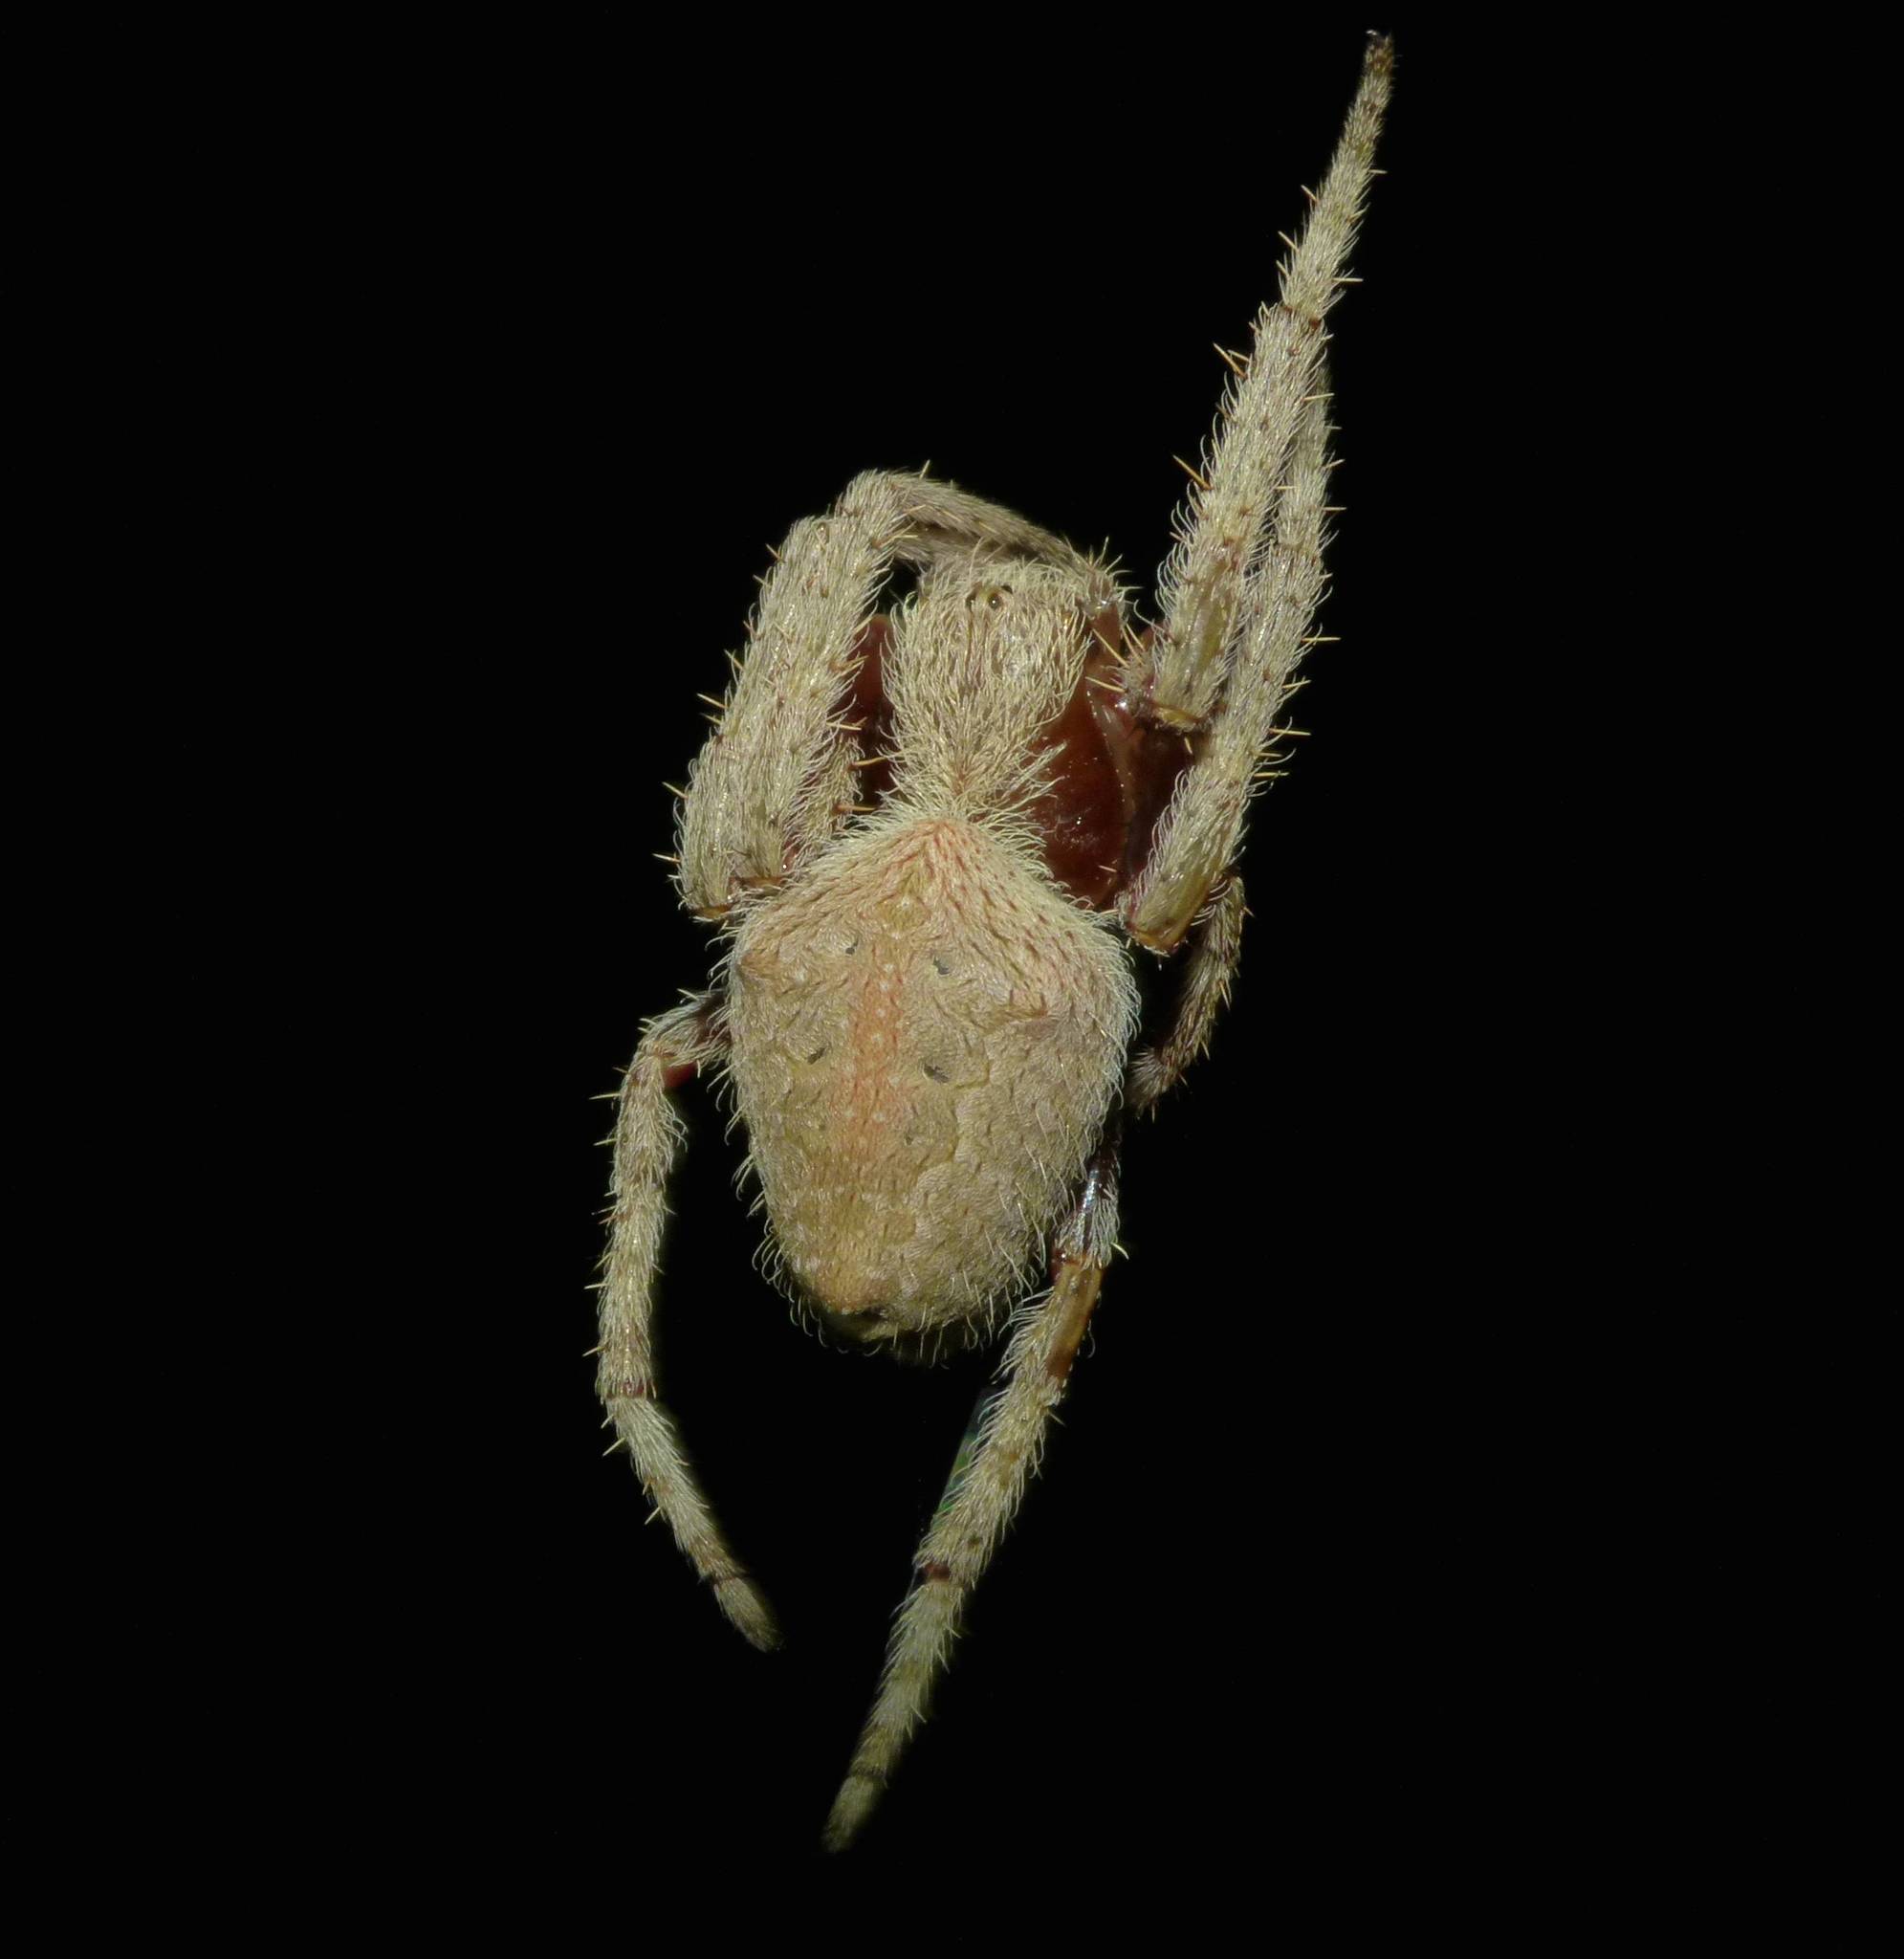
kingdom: Animalia
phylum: Arthropoda
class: Arachnida
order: Araneae
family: Araneidae
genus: Hortophora
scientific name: Hortophora transmarina
